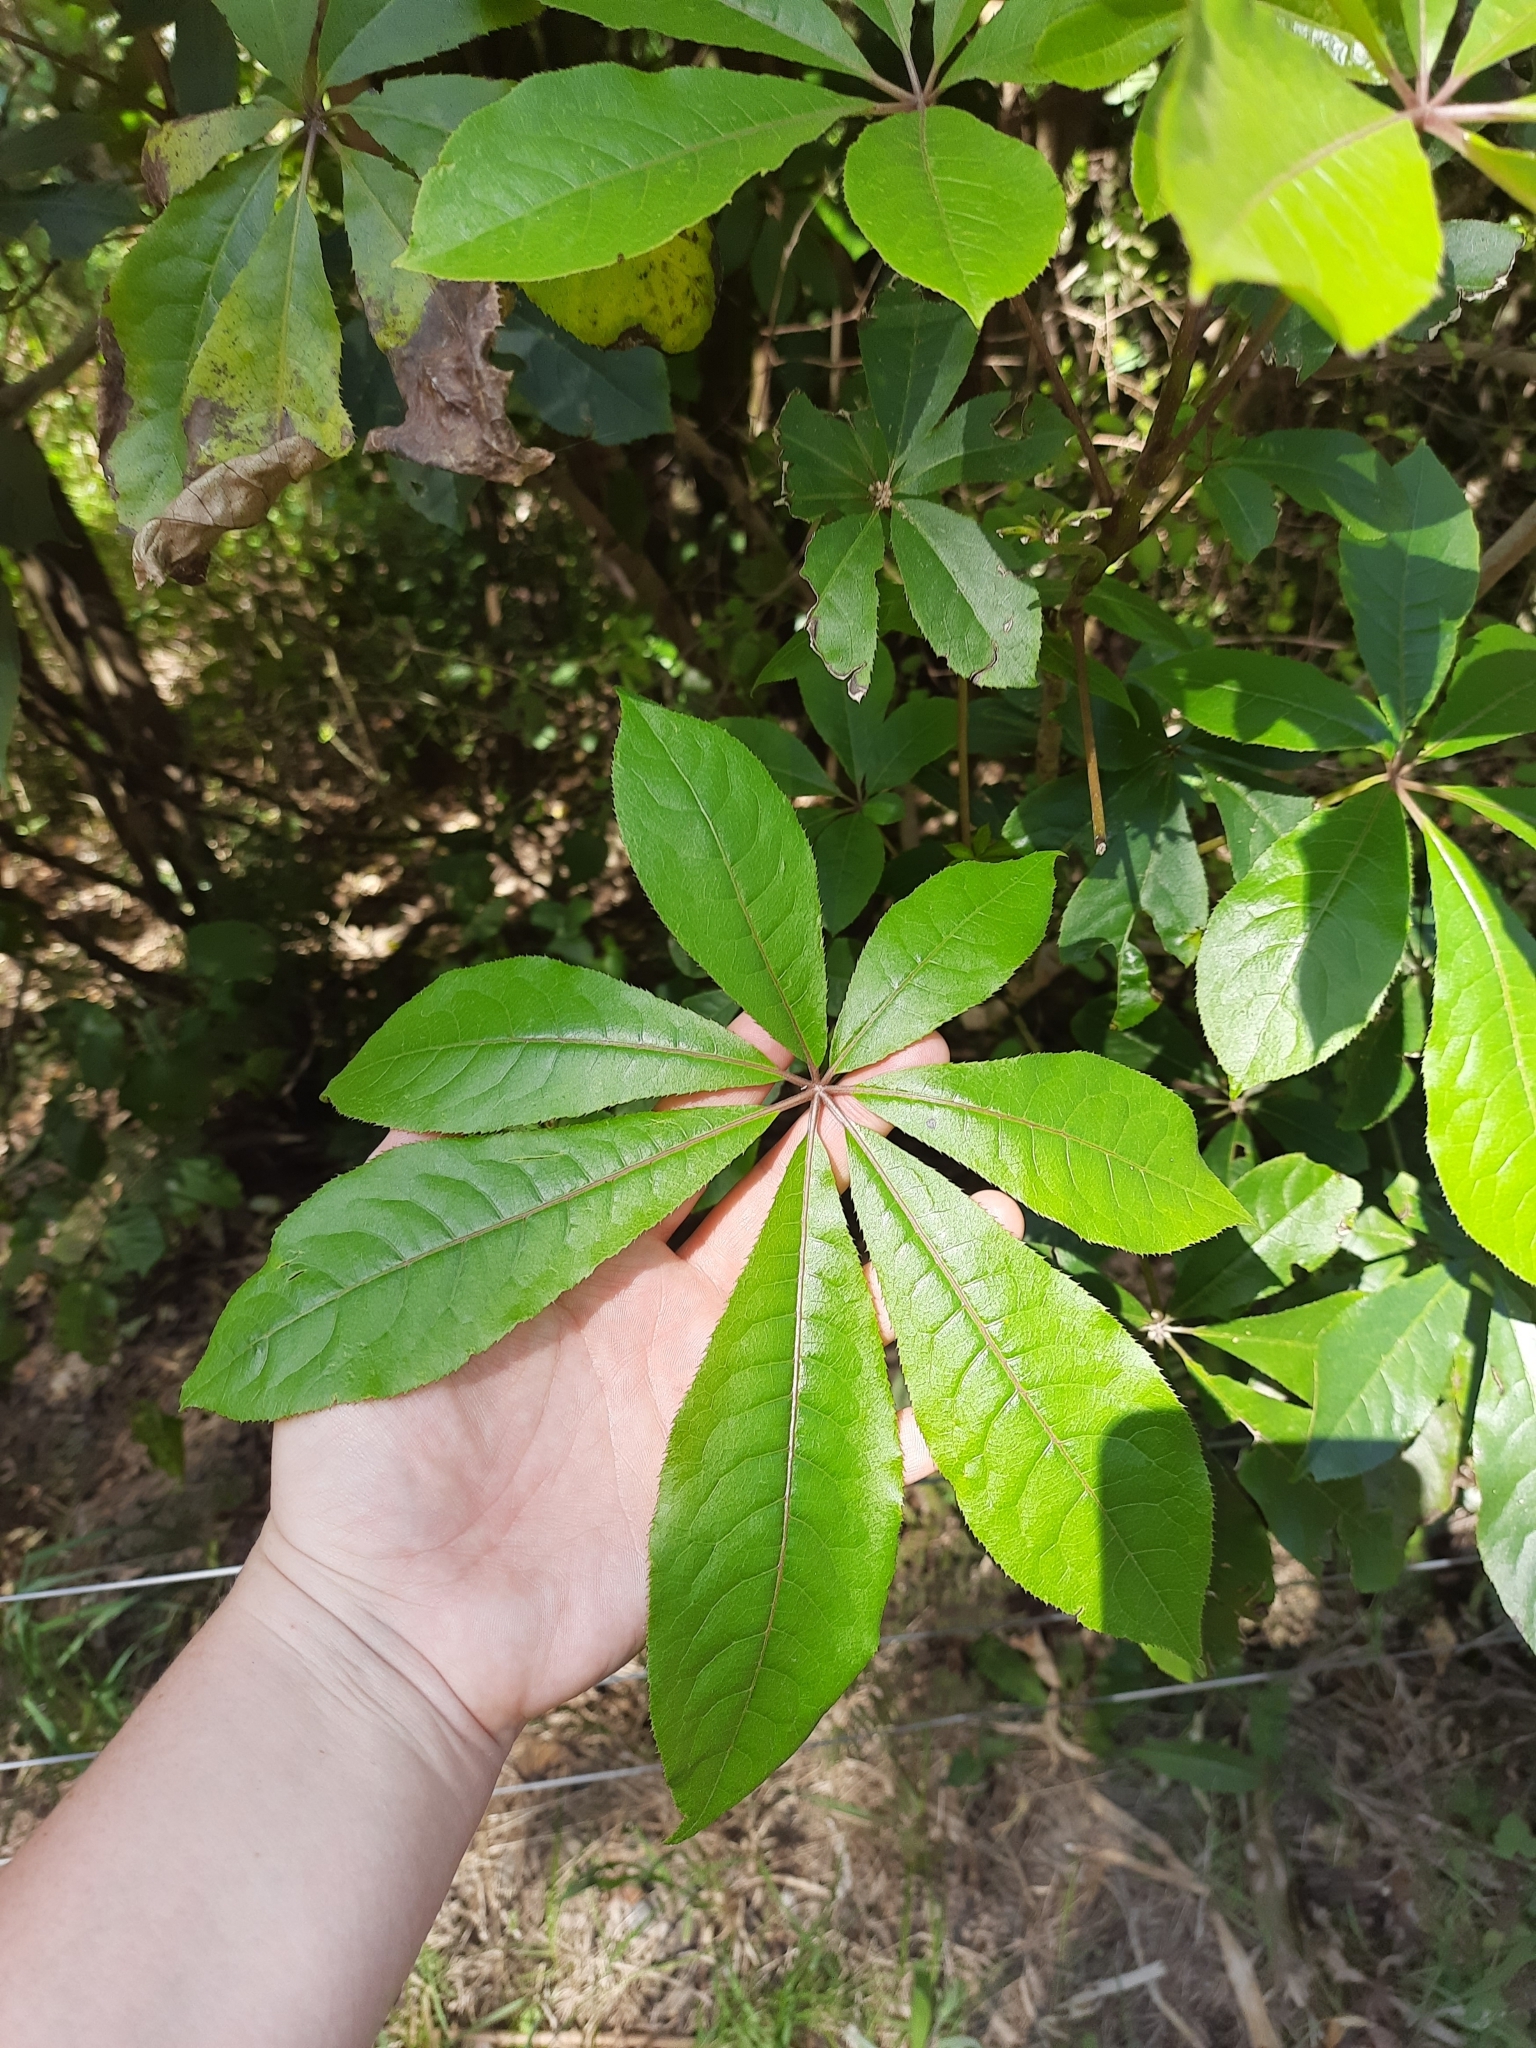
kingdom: Plantae
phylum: Tracheophyta
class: Magnoliopsida
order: Apiales
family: Araliaceae
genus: Schefflera
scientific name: Schefflera digitata
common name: Pate
